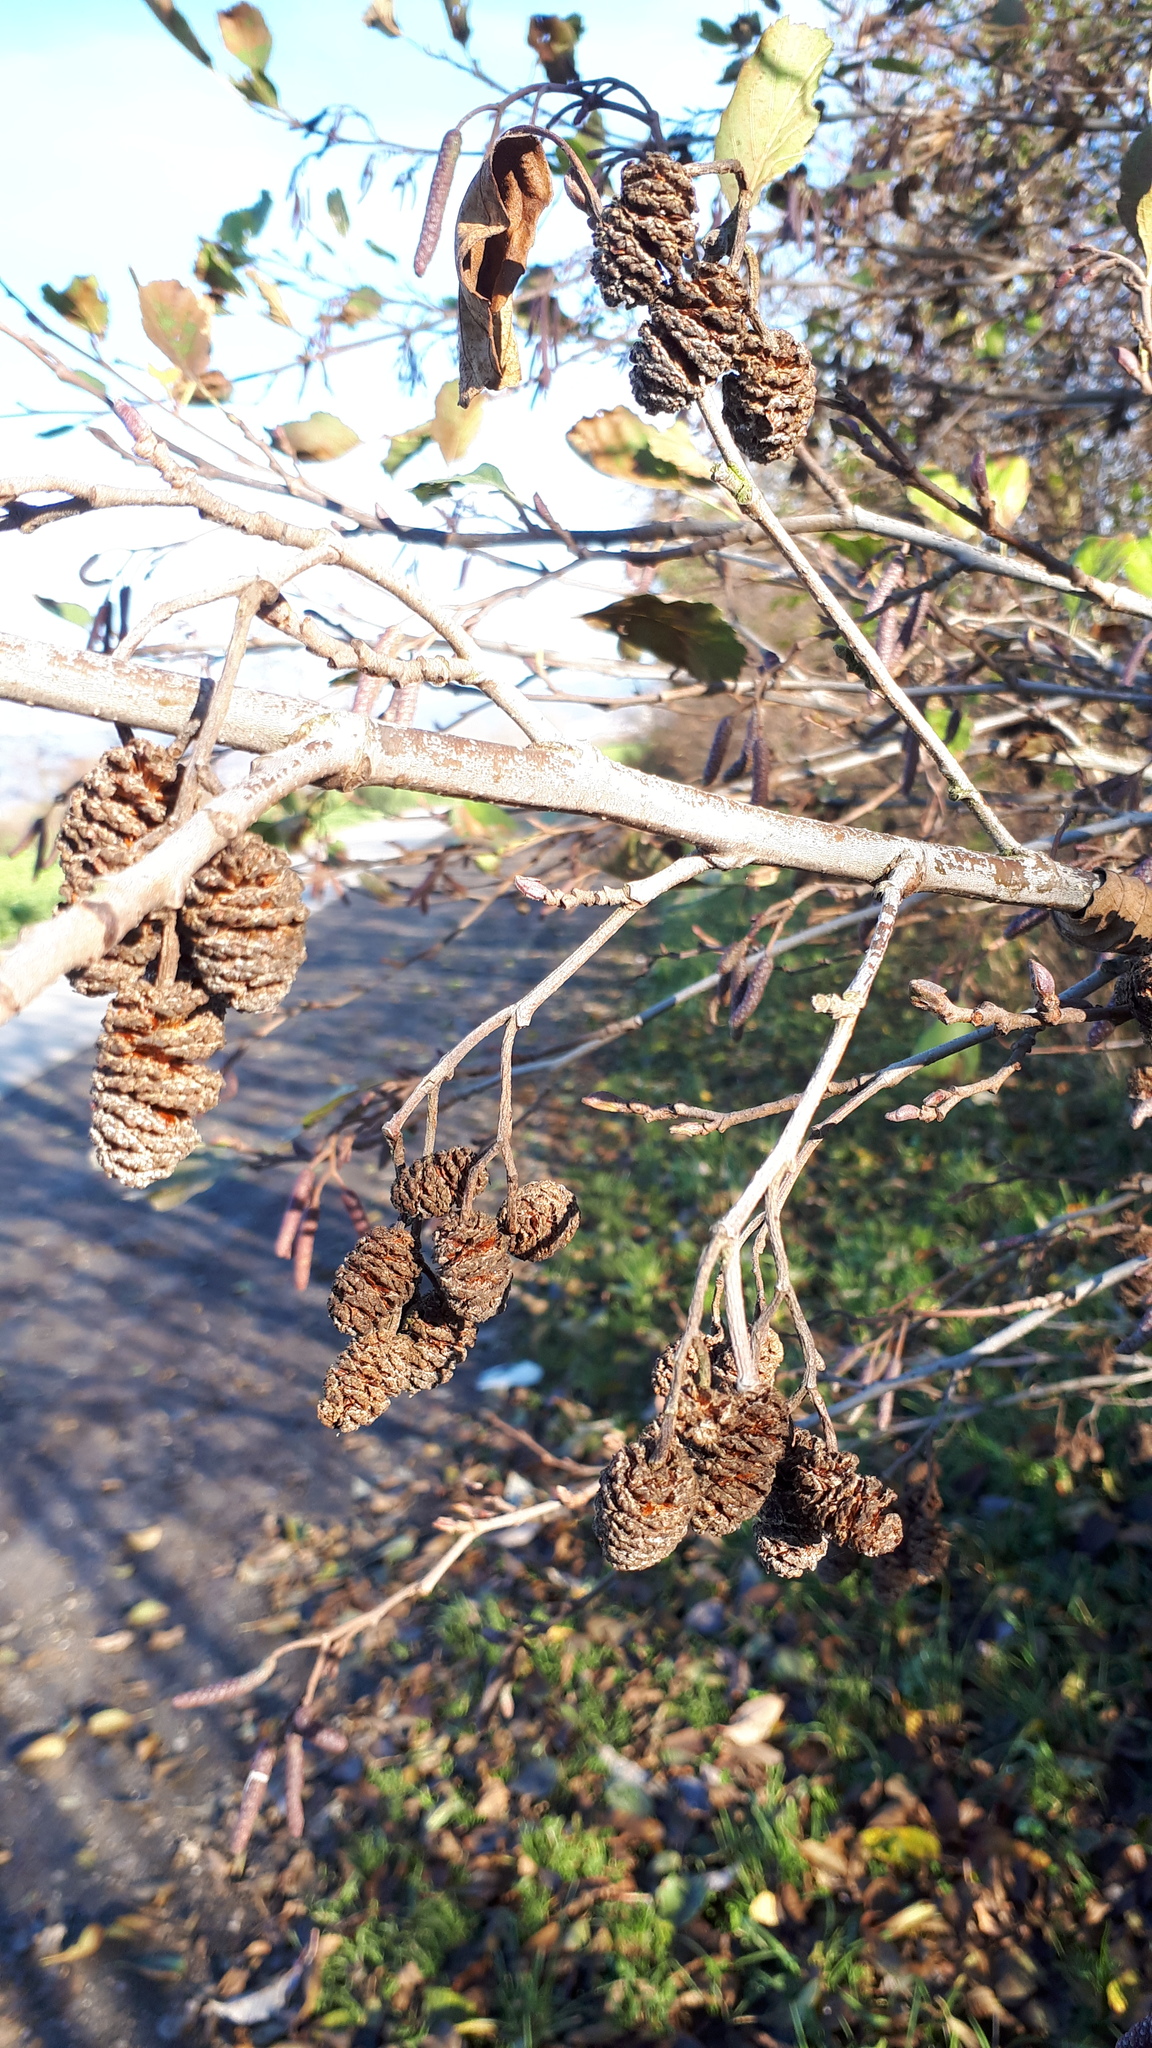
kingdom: Plantae
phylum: Tracheophyta
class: Magnoliopsida
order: Fagales
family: Betulaceae
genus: Alnus
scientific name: Alnus glutinosa
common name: Black alder
